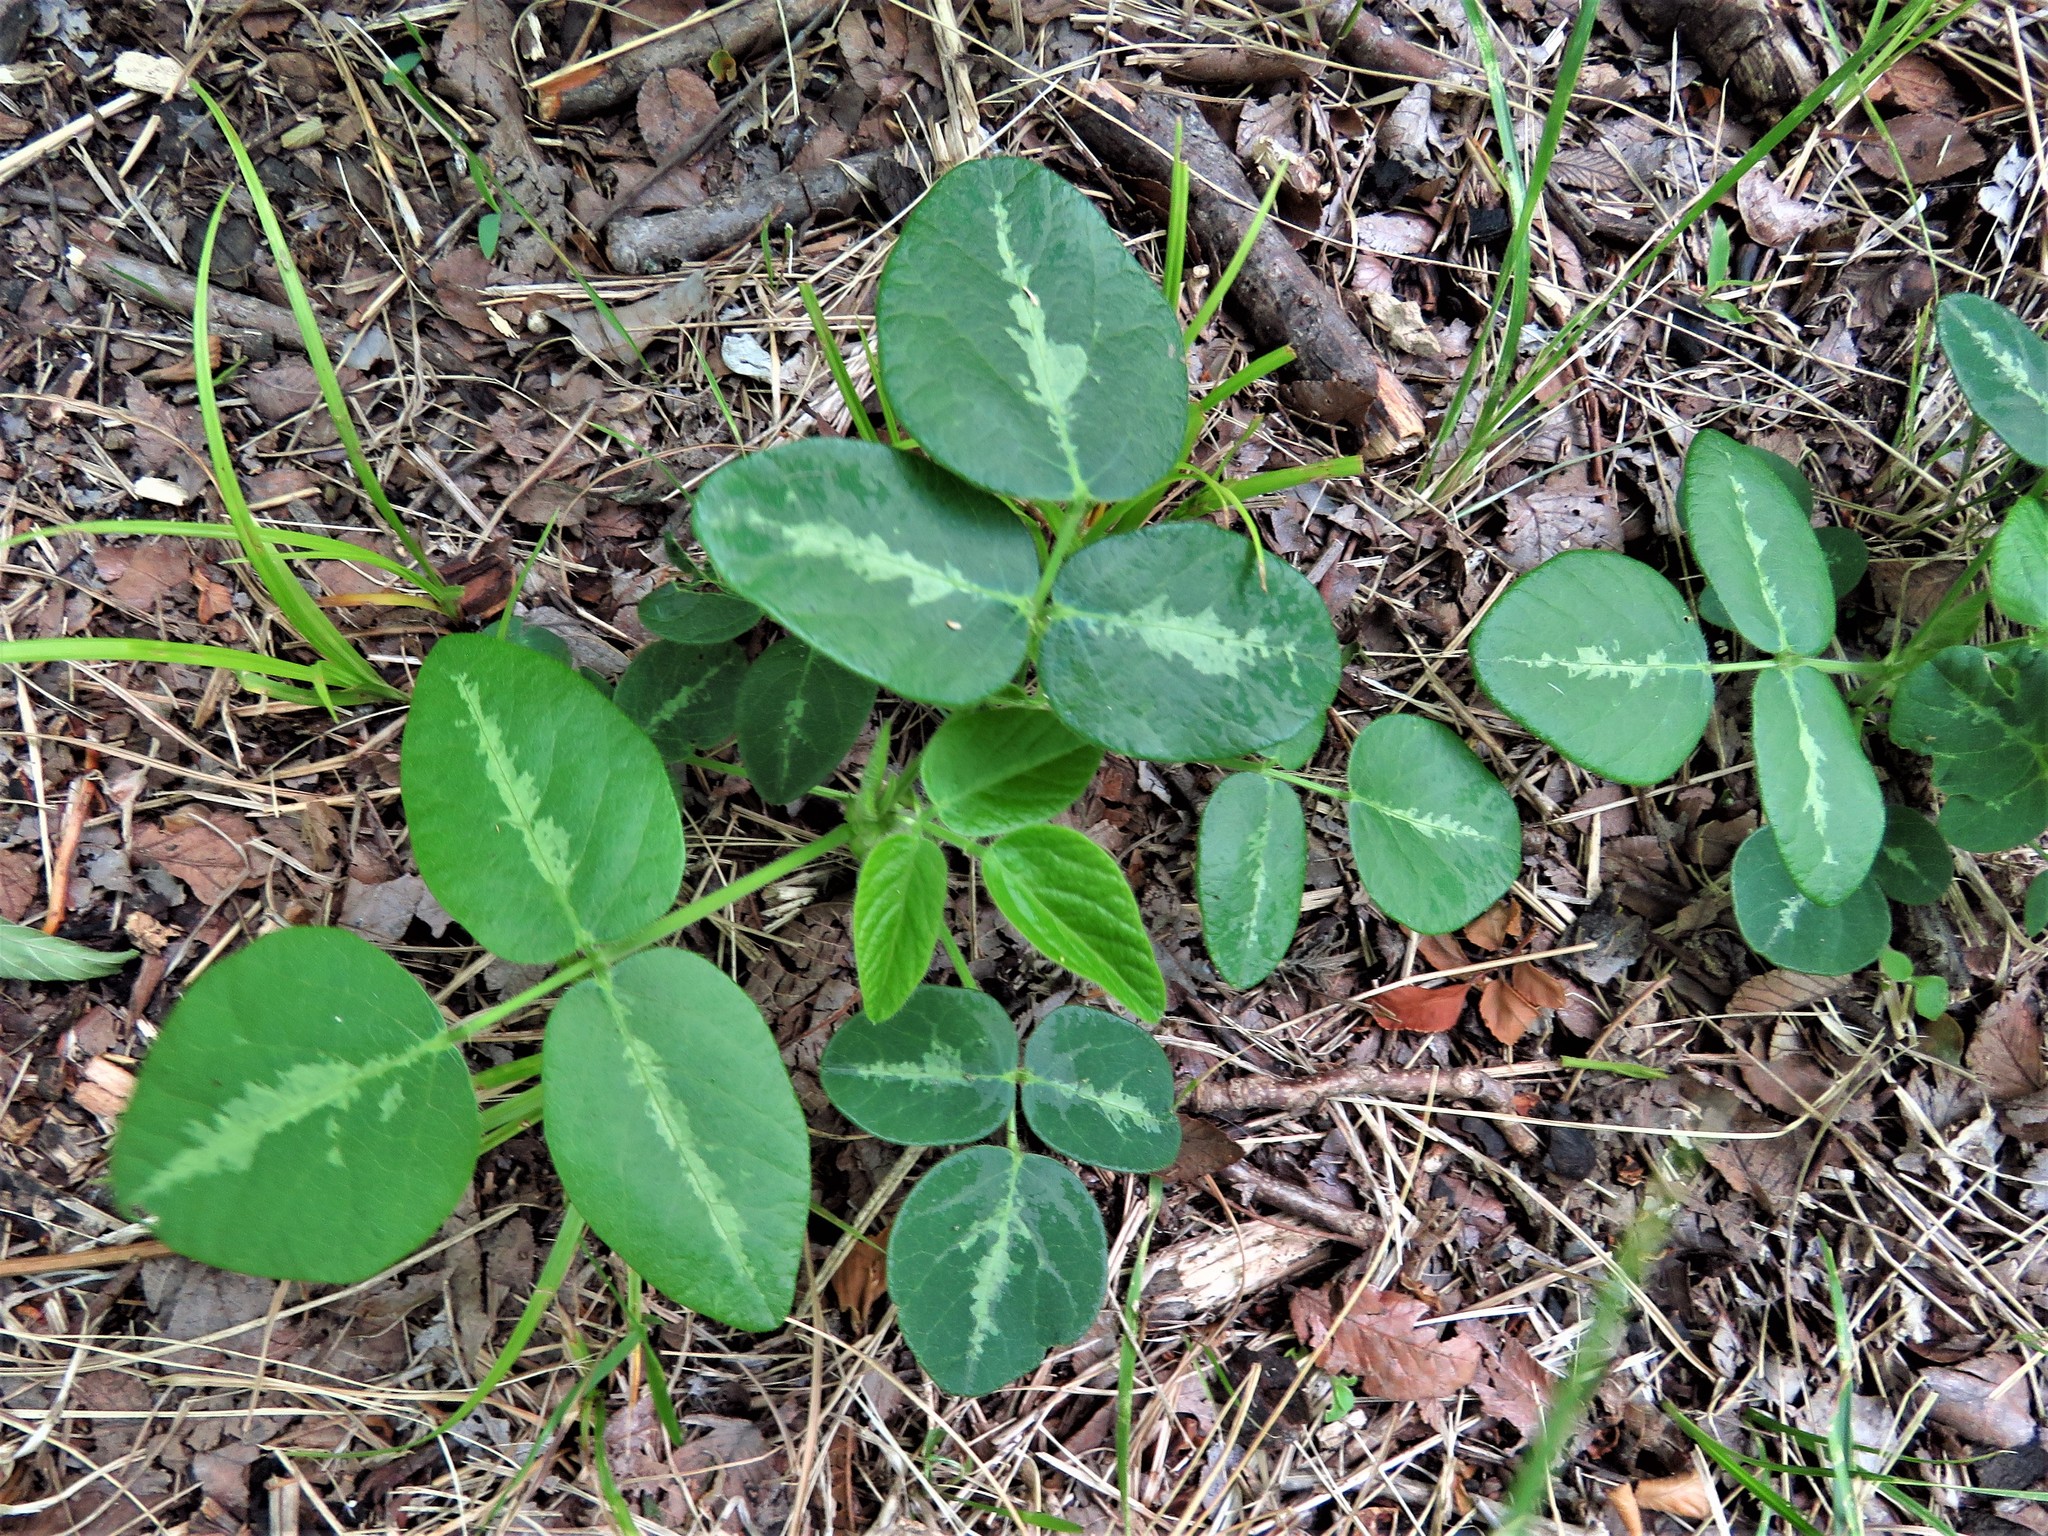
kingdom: Plantae
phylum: Tracheophyta
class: Magnoliopsida
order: Fabales
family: Fabaceae
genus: Desmodium
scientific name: Desmodium tweedyi
